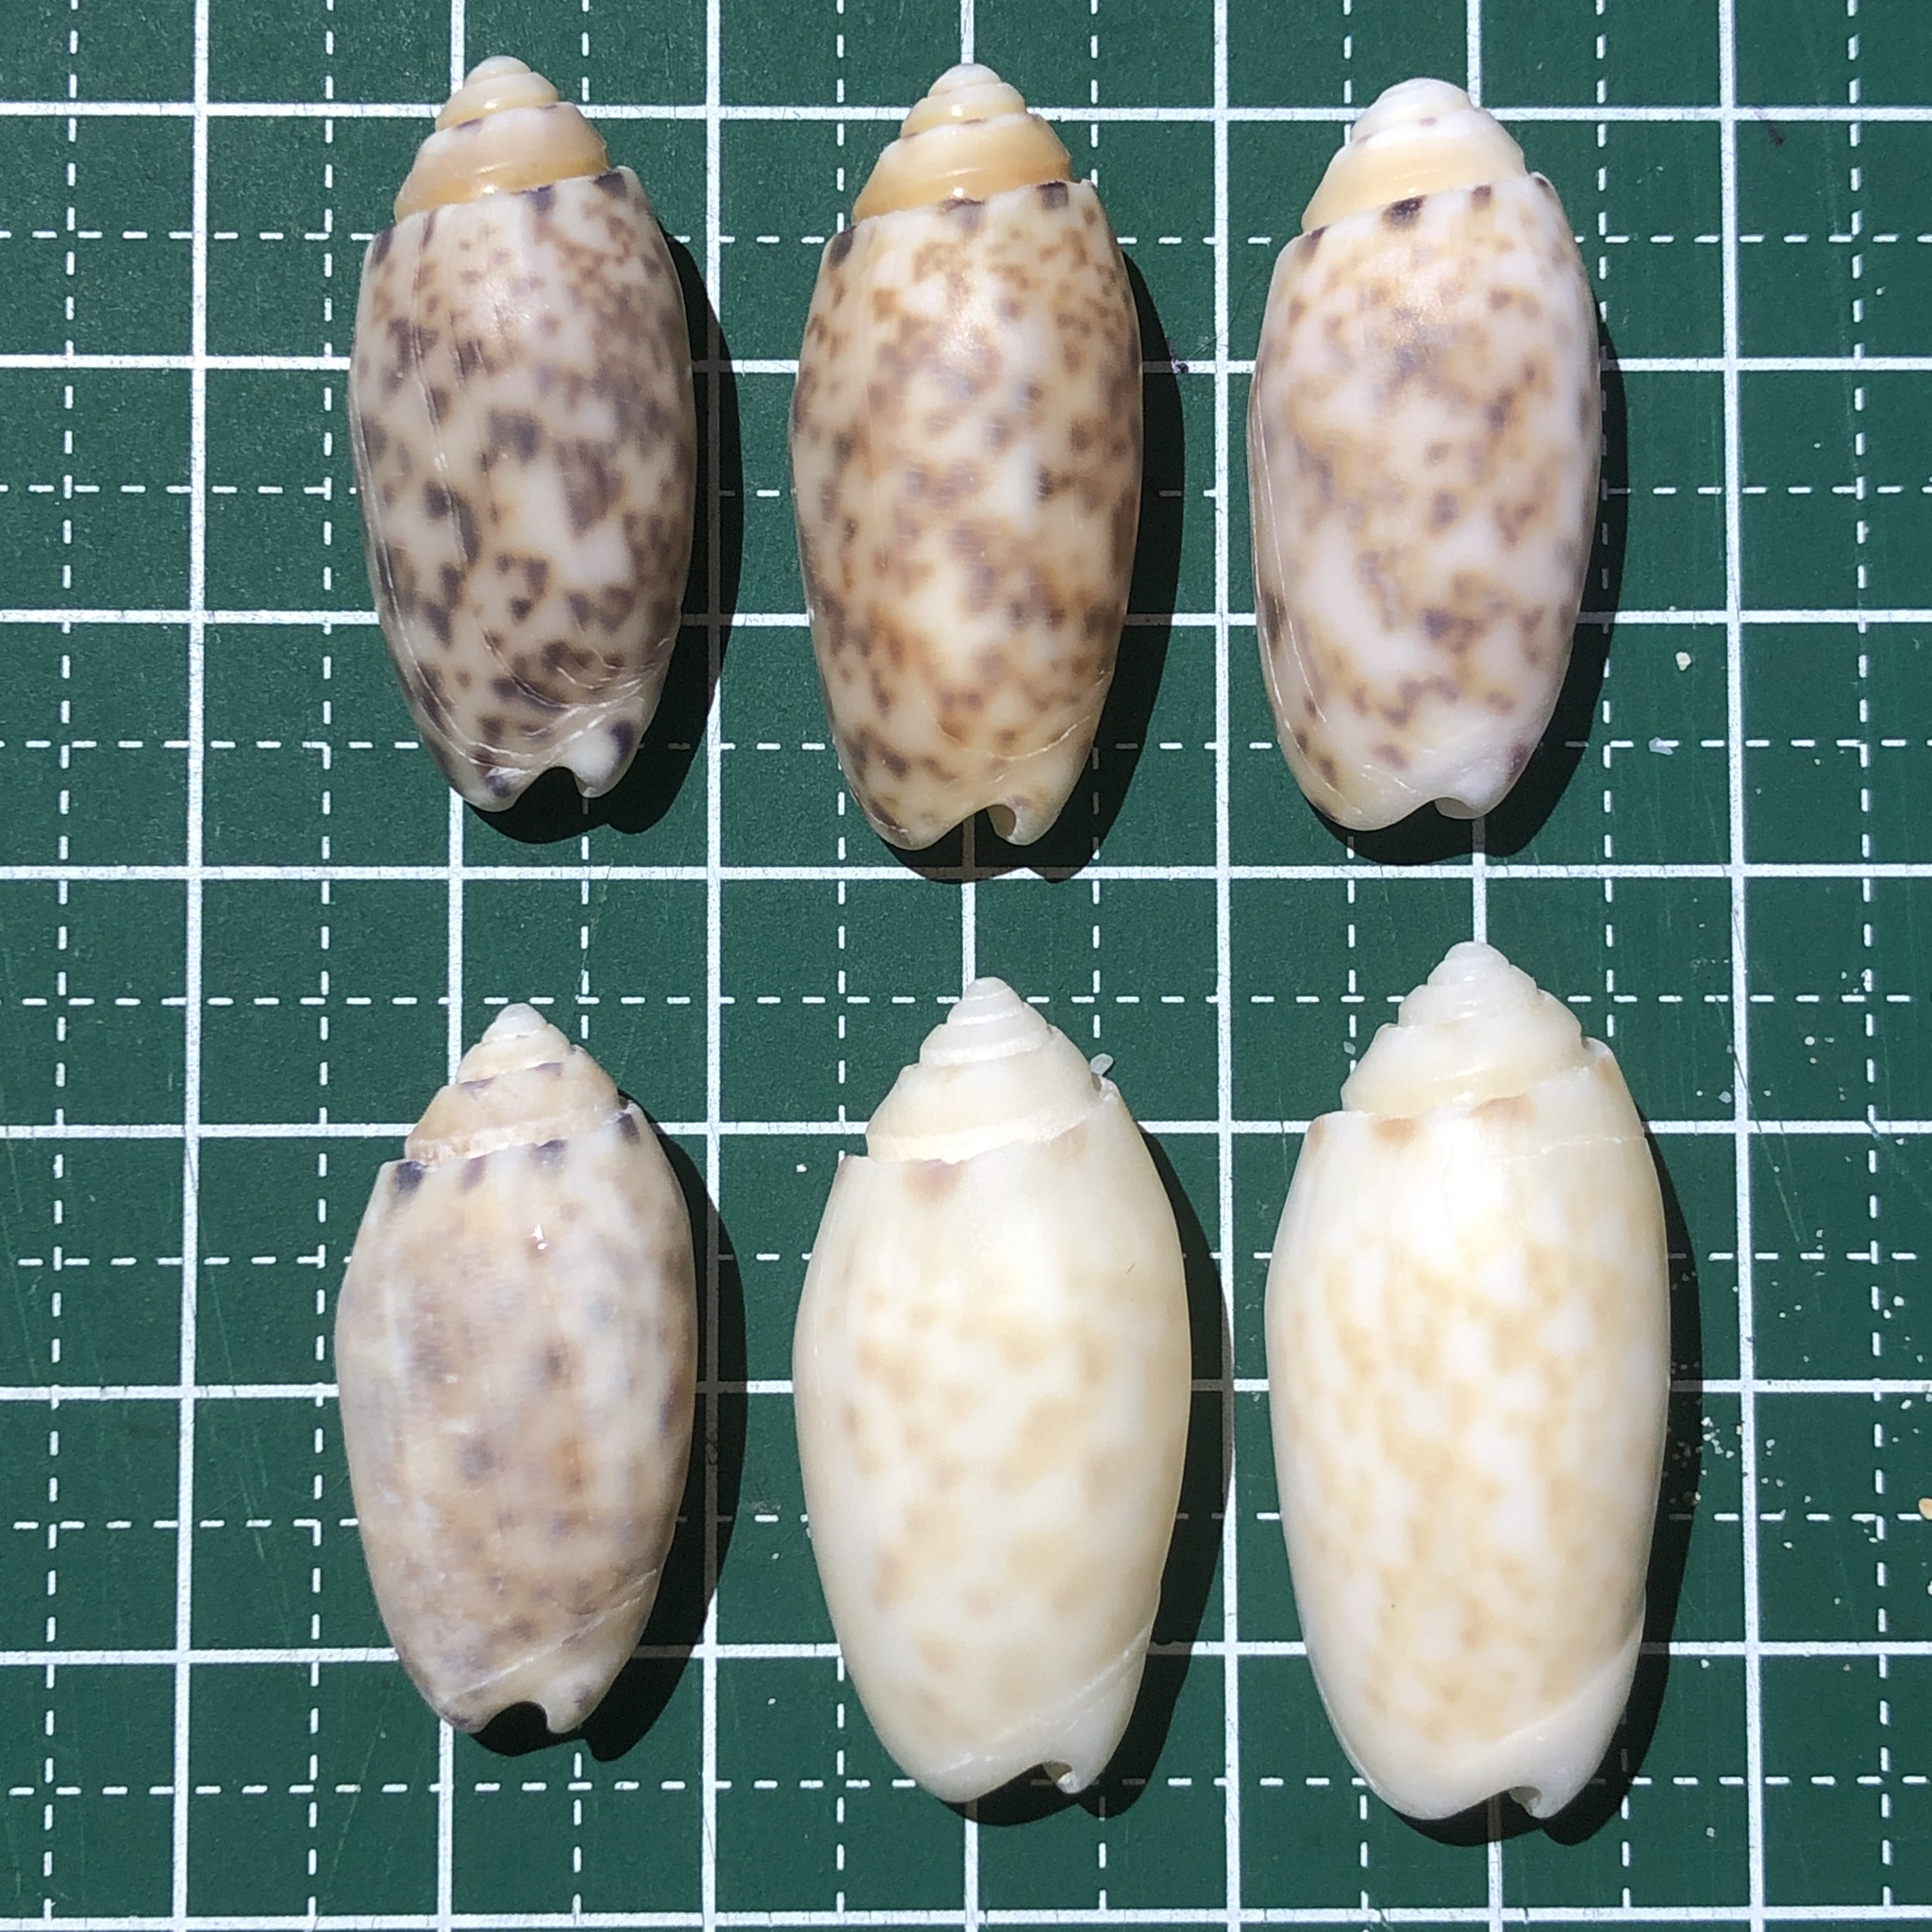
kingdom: Animalia
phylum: Mollusca
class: Gastropoda
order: Neogastropoda
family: Olividae
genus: Oliva
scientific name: Oliva amethystina
